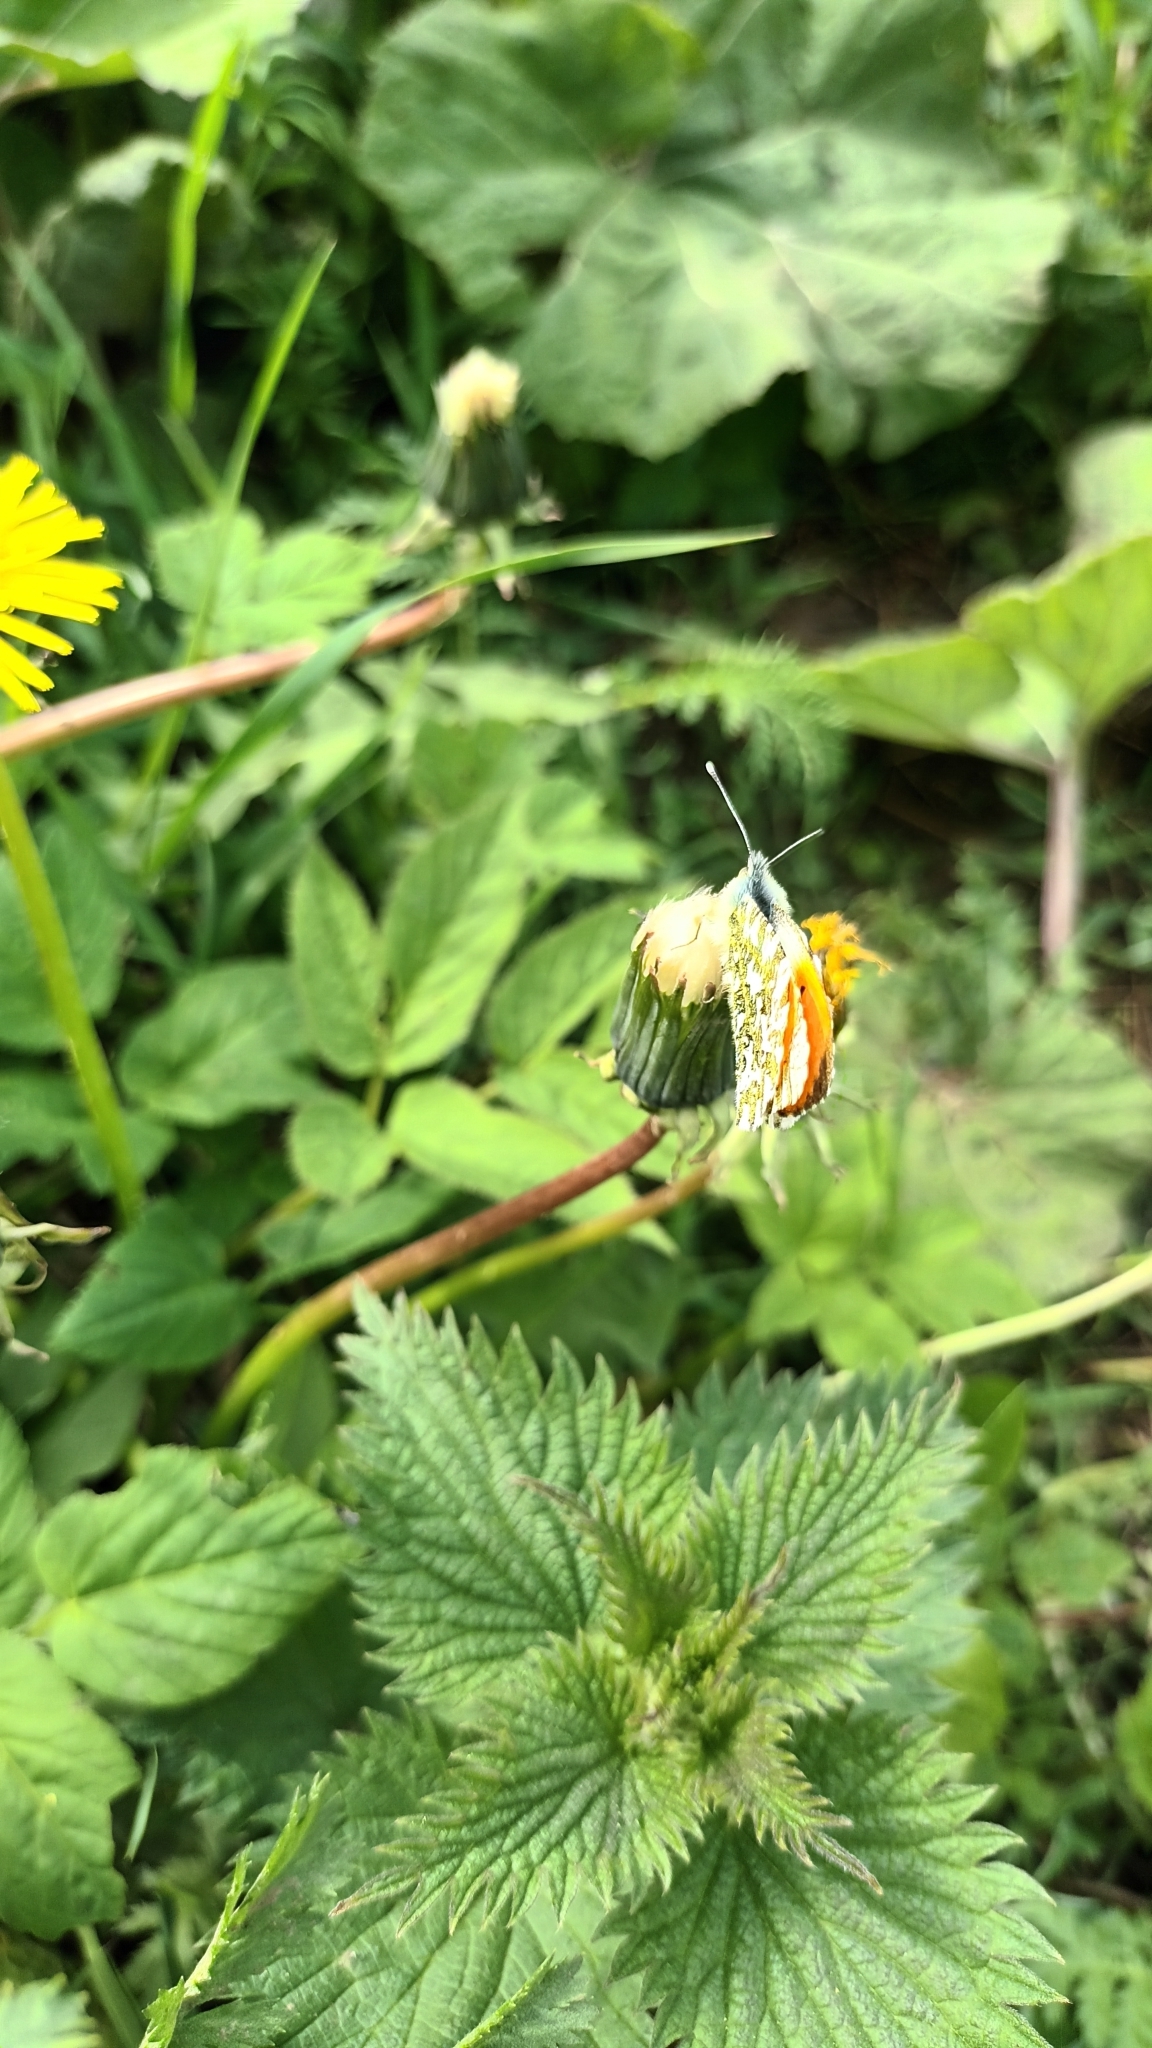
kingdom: Animalia
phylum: Arthropoda
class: Insecta
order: Lepidoptera
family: Pieridae
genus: Anthocharis
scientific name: Anthocharis cardamines
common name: Orange-tip
